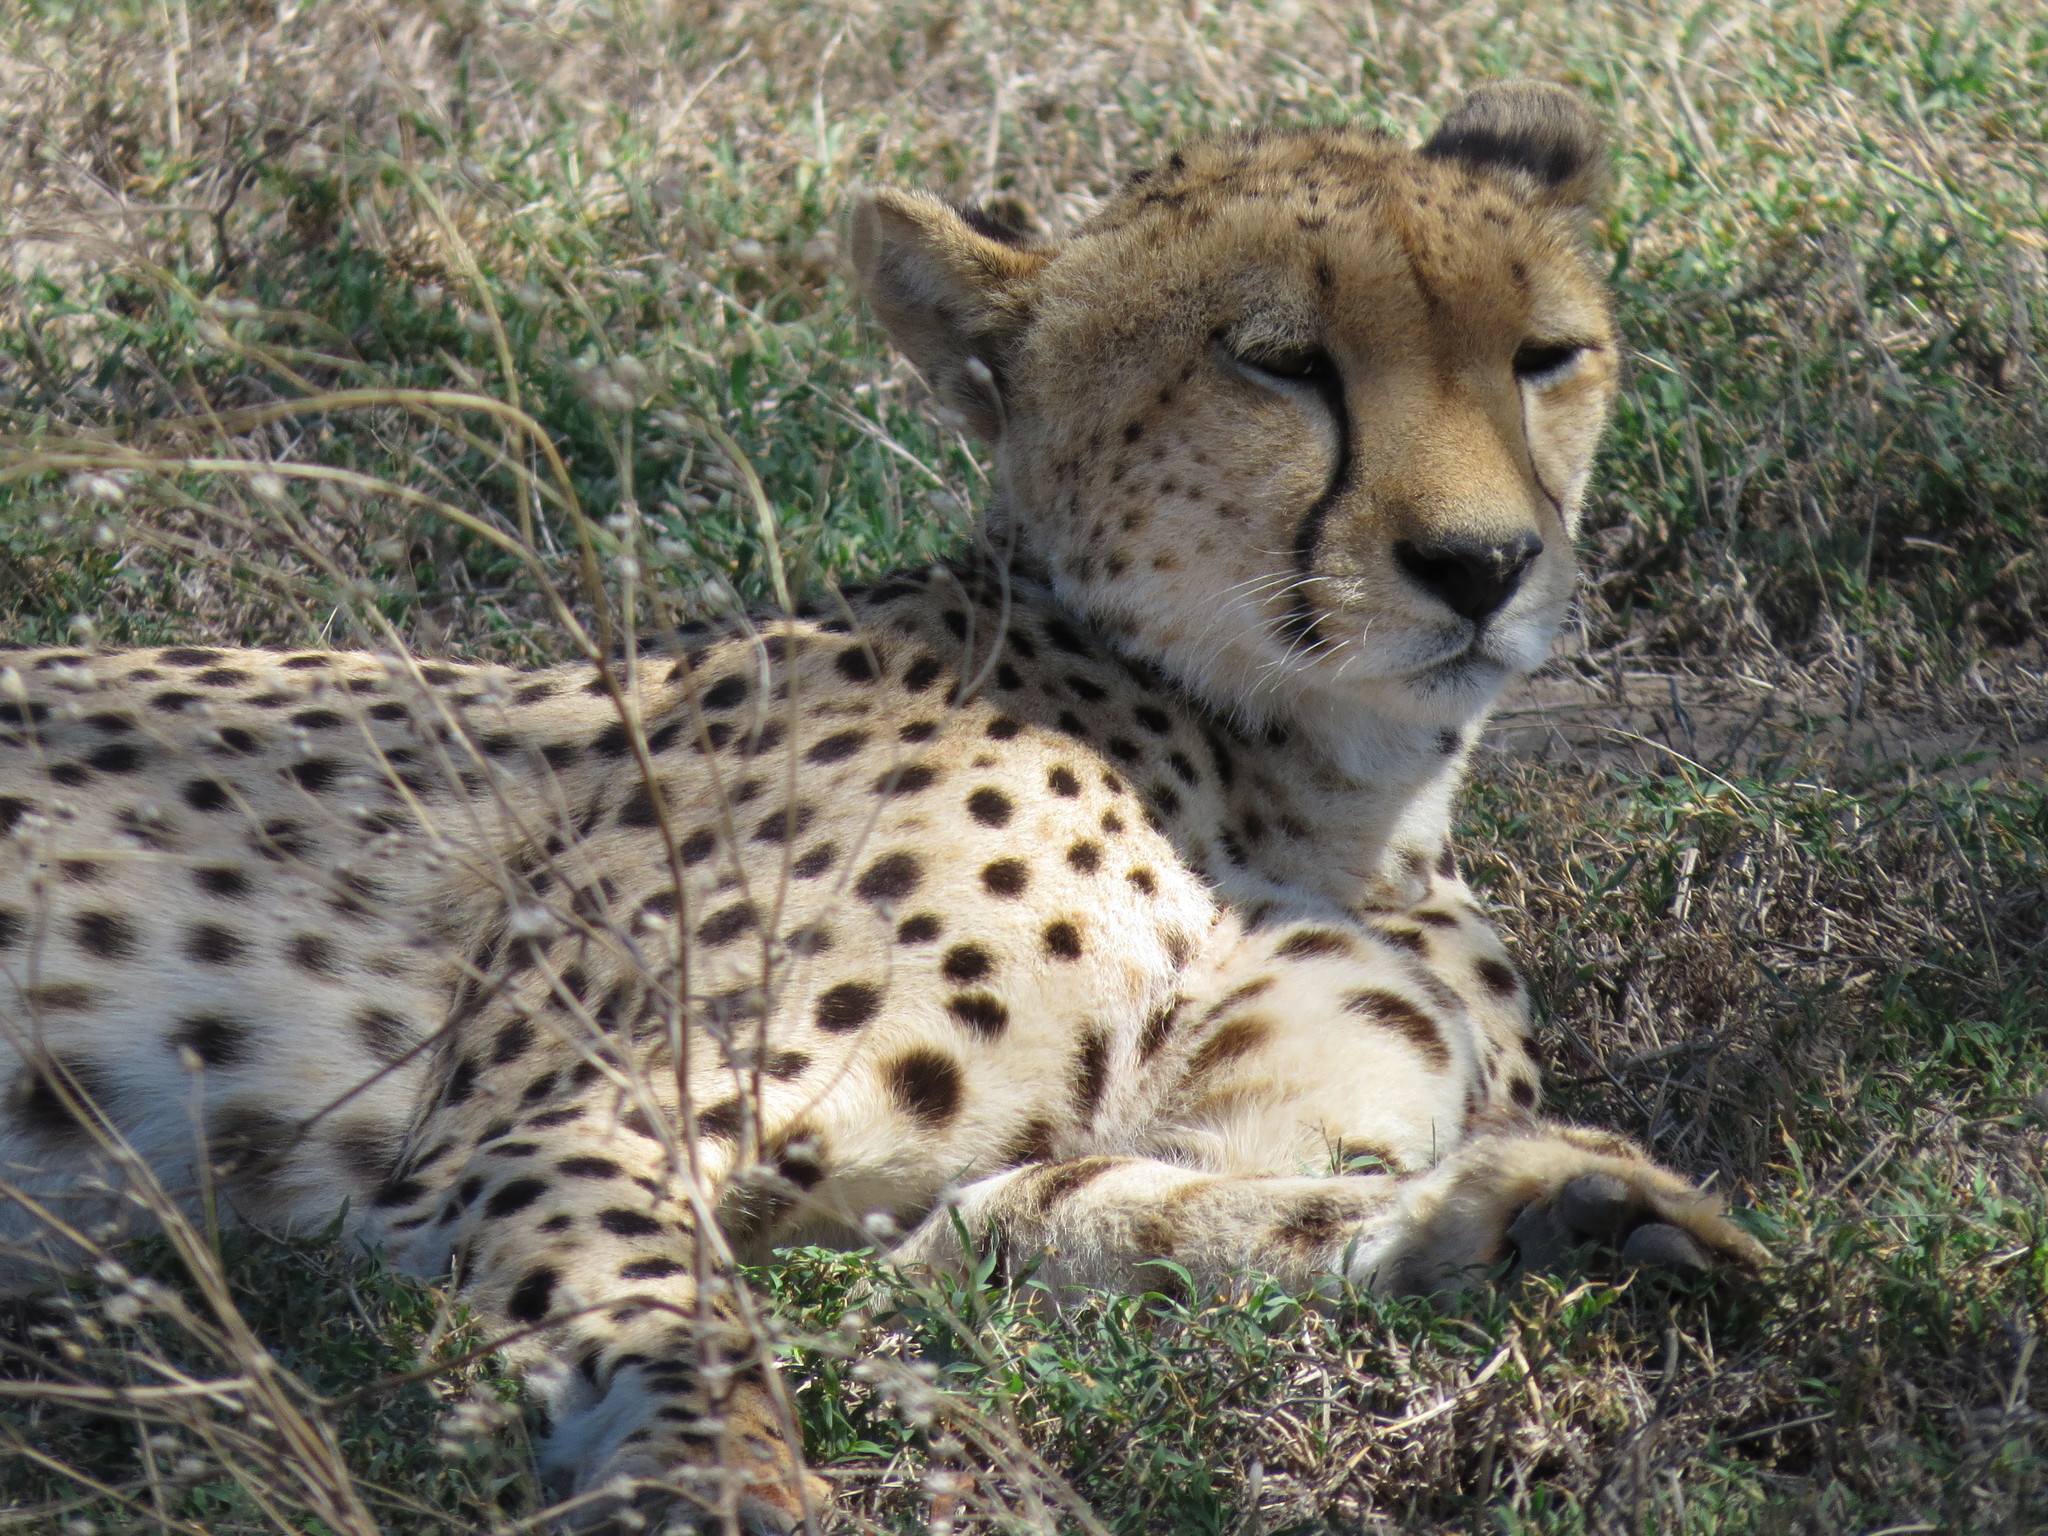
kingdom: Animalia
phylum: Chordata
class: Mammalia
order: Carnivora
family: Felidae
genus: Acinonyx
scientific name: Acinonyx jubatus
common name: Cheetah
